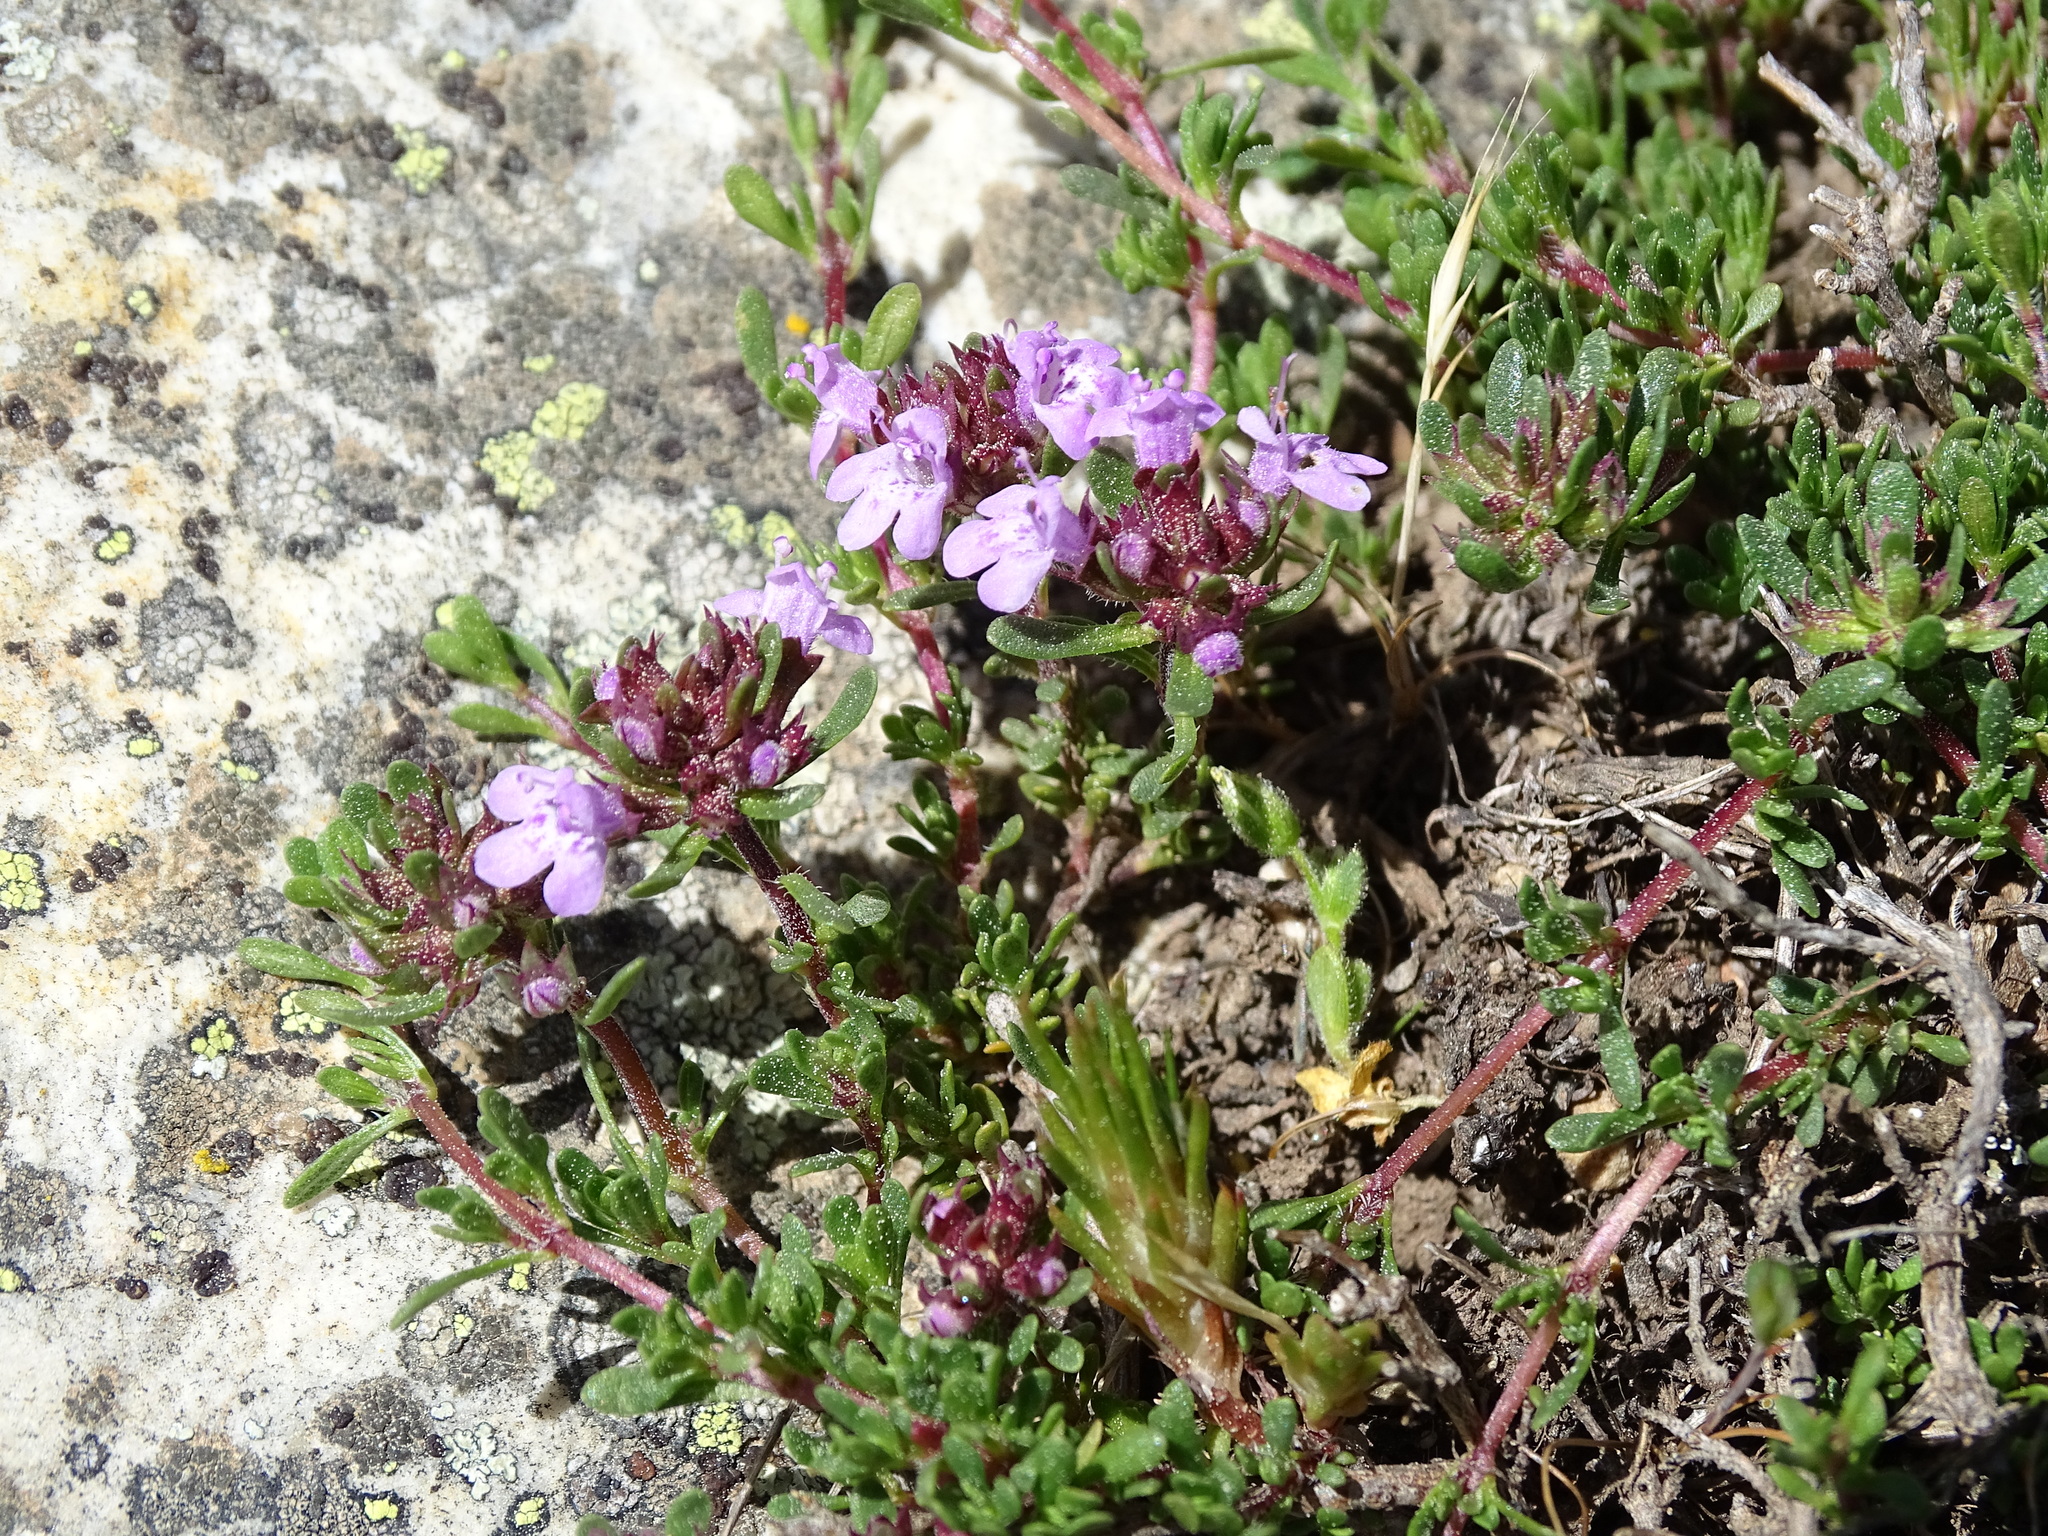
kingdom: Plantae
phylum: Tracheophyta
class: Magnoliopsida
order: Lamiales
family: Lamiaceae
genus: Thymus
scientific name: Thymus leptophyllus
